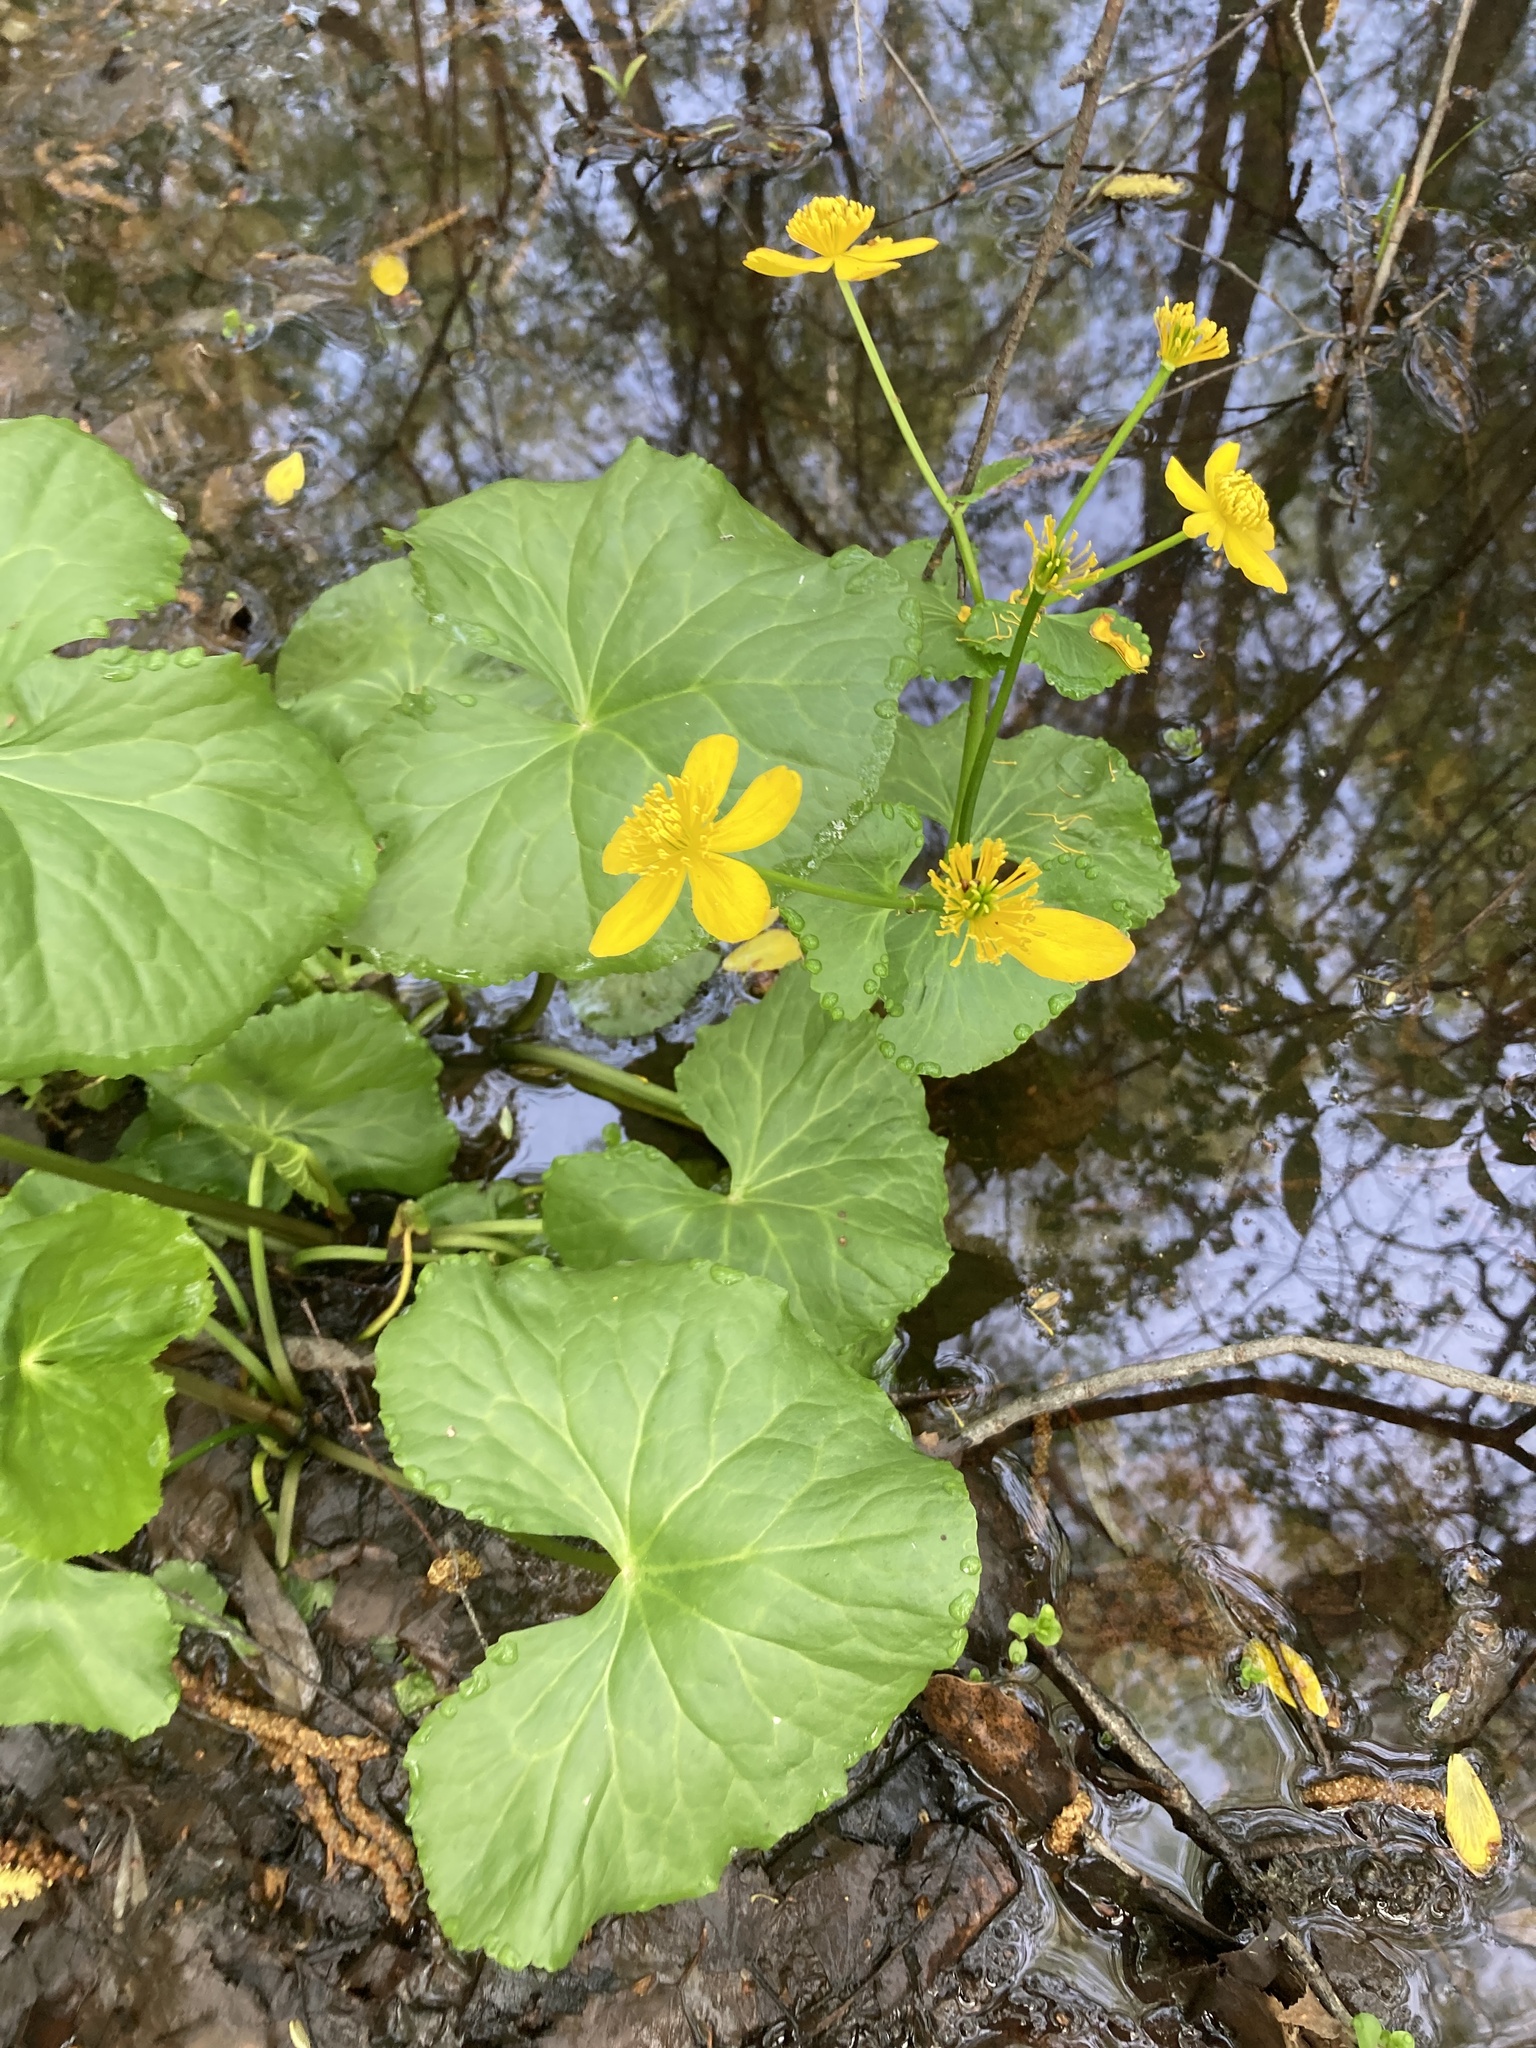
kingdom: Plantae
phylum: Tracheophyta
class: Magnoliopsida
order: Ranunculales
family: Ranunculaceae
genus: Caltha
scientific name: Caltha palustris
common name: Marsh marigold
